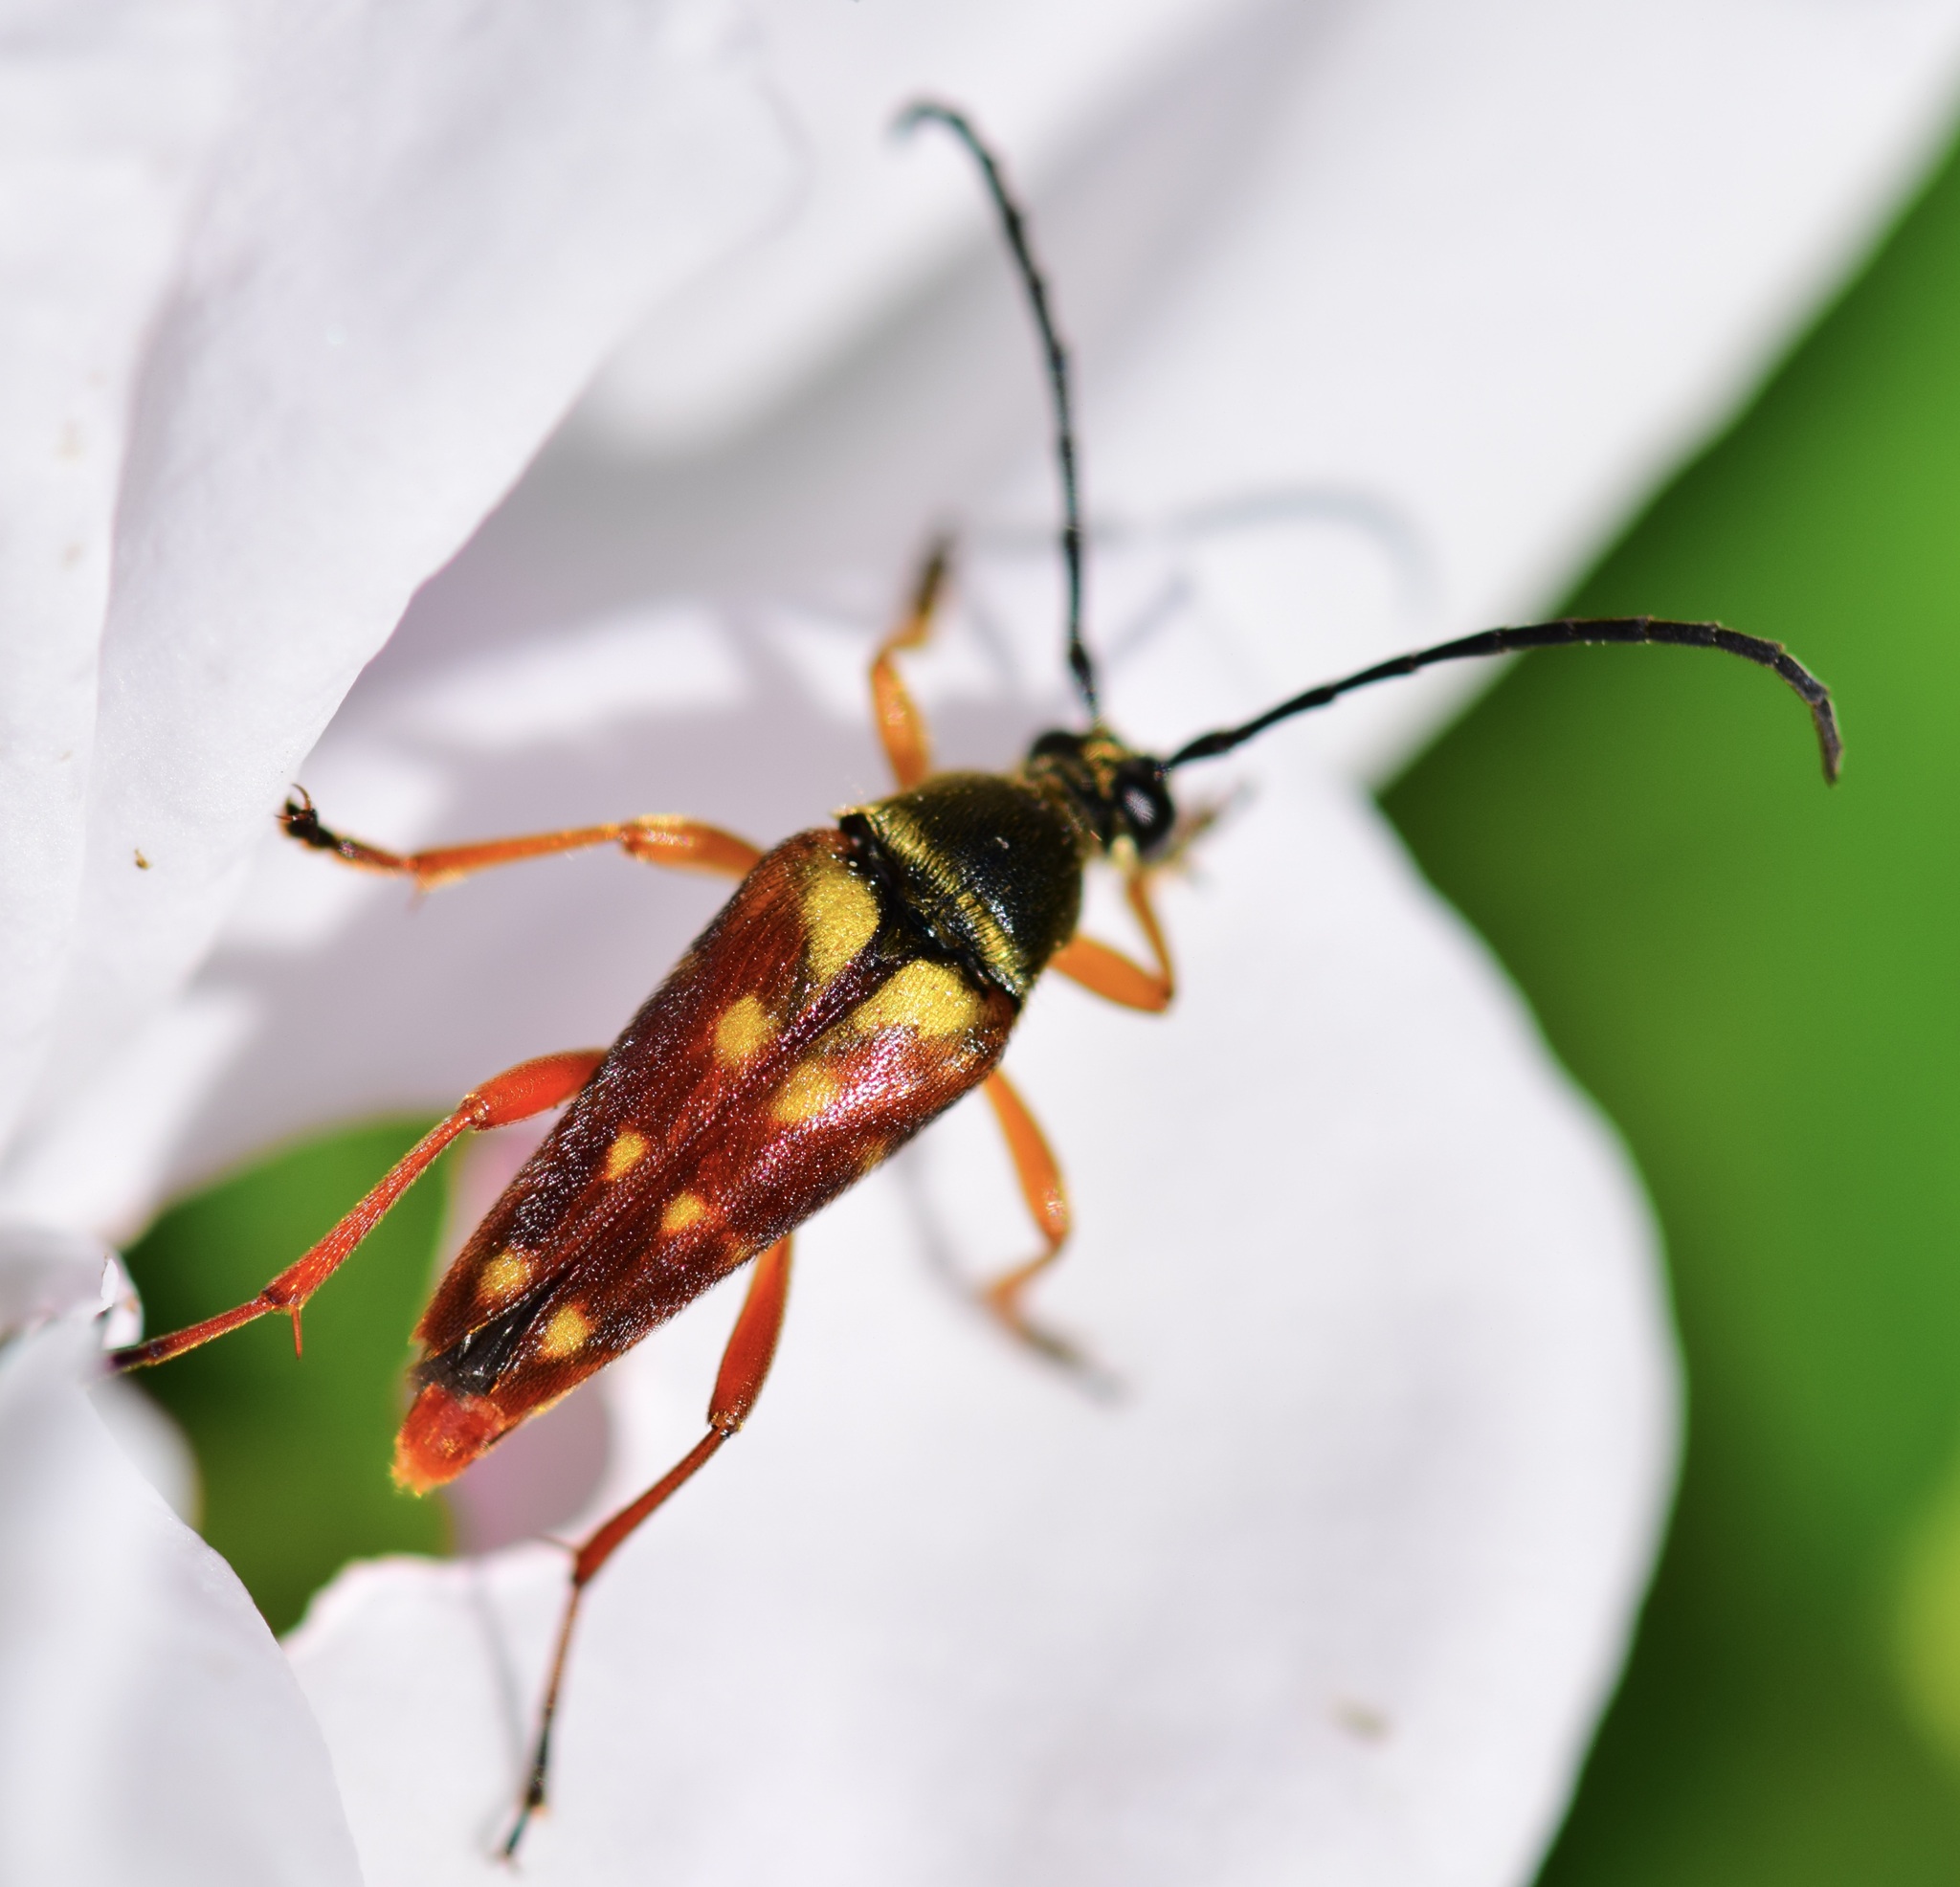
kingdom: Animalia
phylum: Arthropoda
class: Insecta
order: Coleoptera
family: Cerambycidae
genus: Typocerus
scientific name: Typocerus velutinus
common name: Banded longhorn beetle
